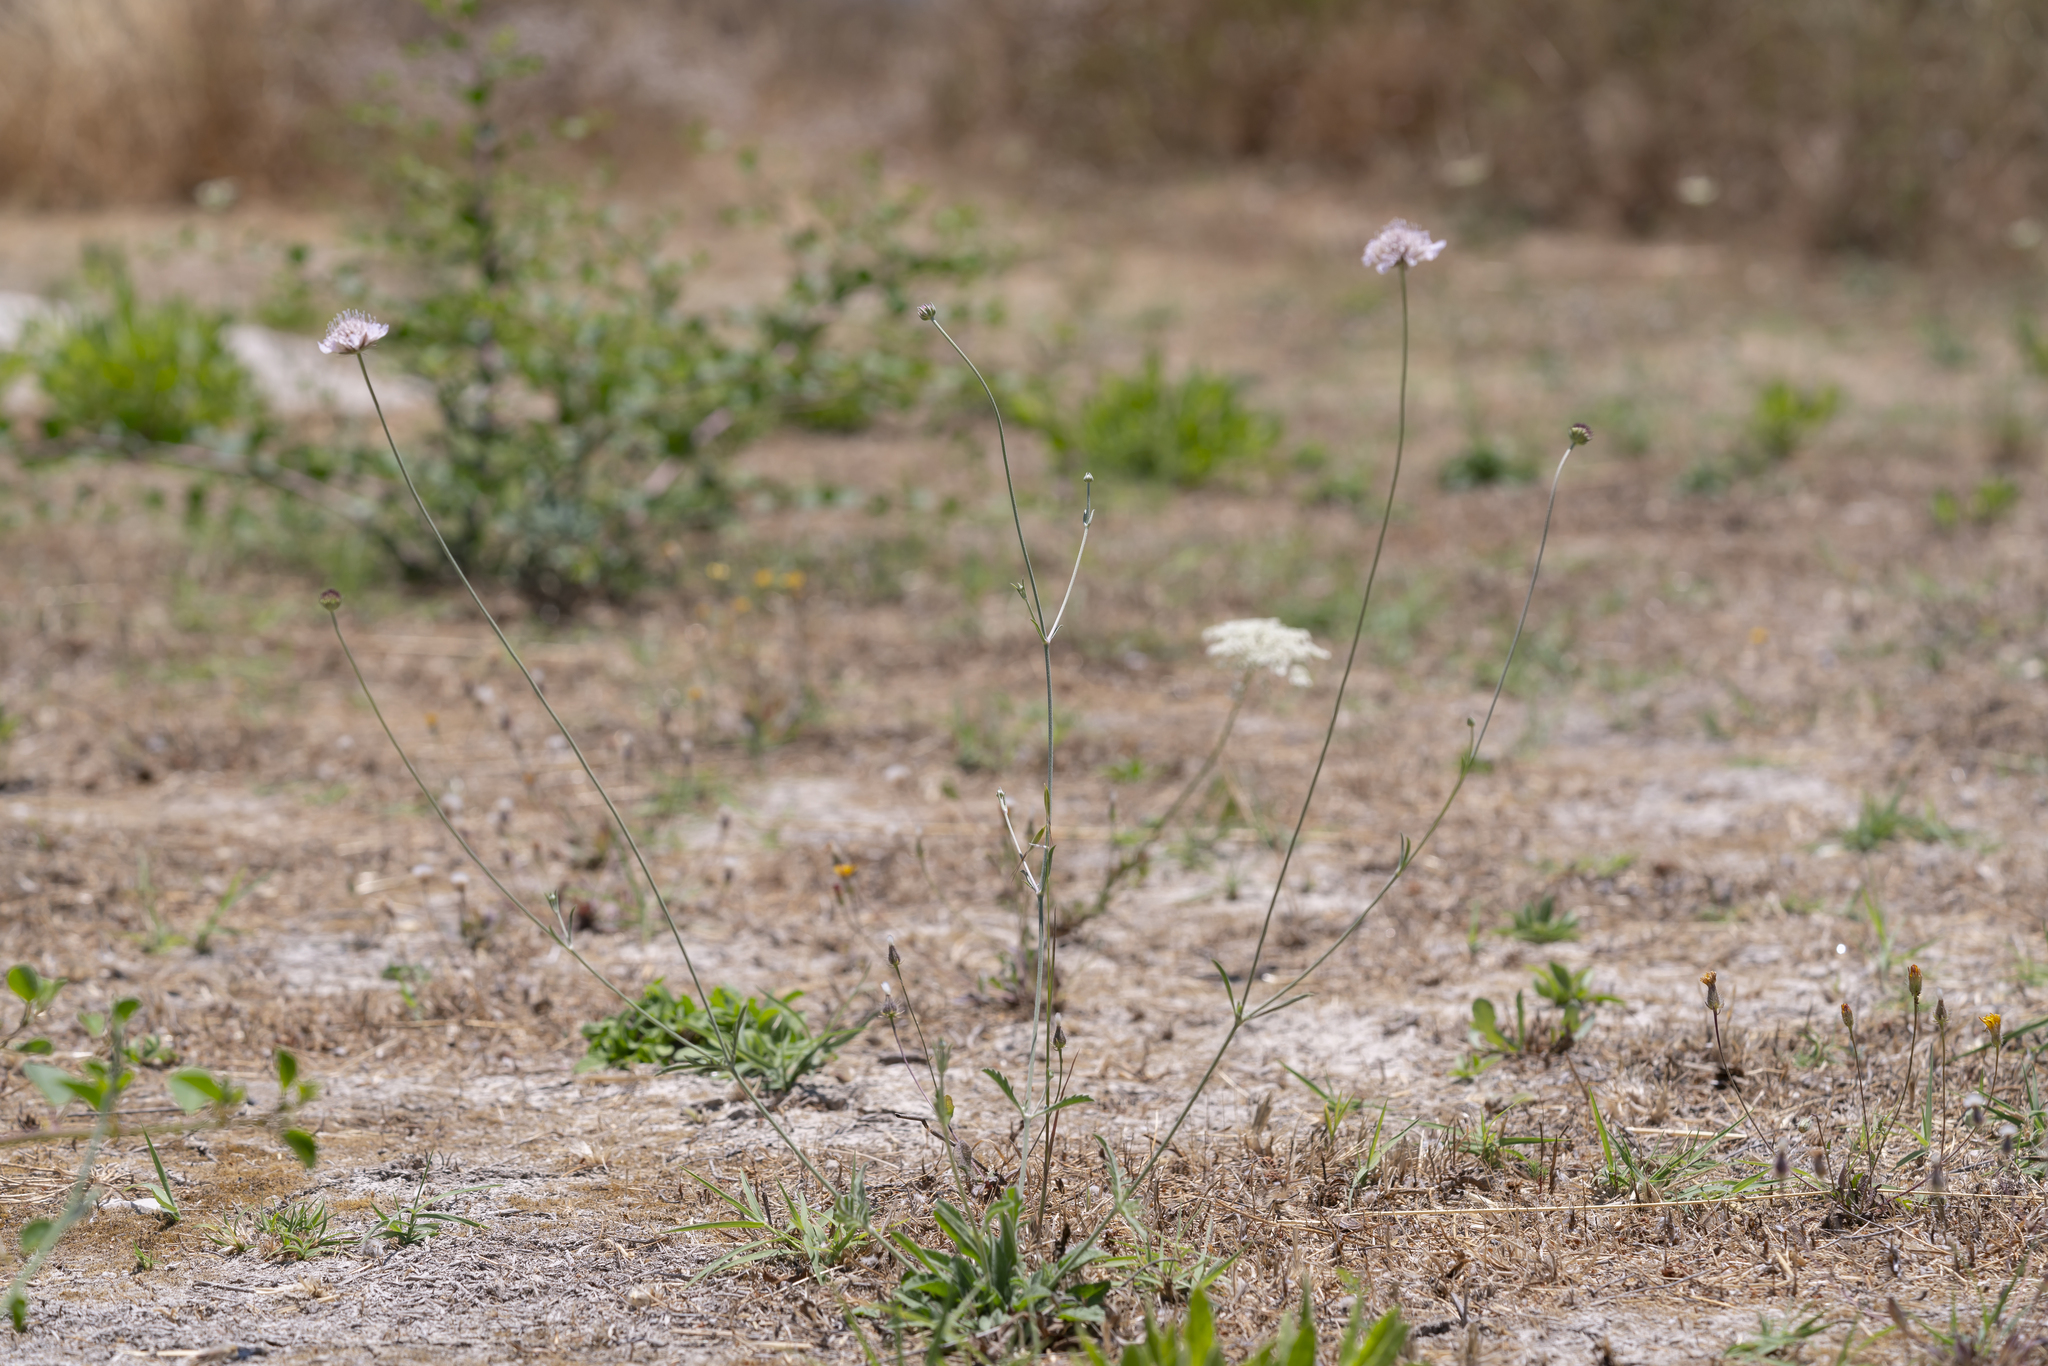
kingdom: Plantae
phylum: Tracheophyta
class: Magnoliopsida
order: Dipsacales
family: Caprifoliaceae
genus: Lomelosia
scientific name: Lomelosia divaricata
